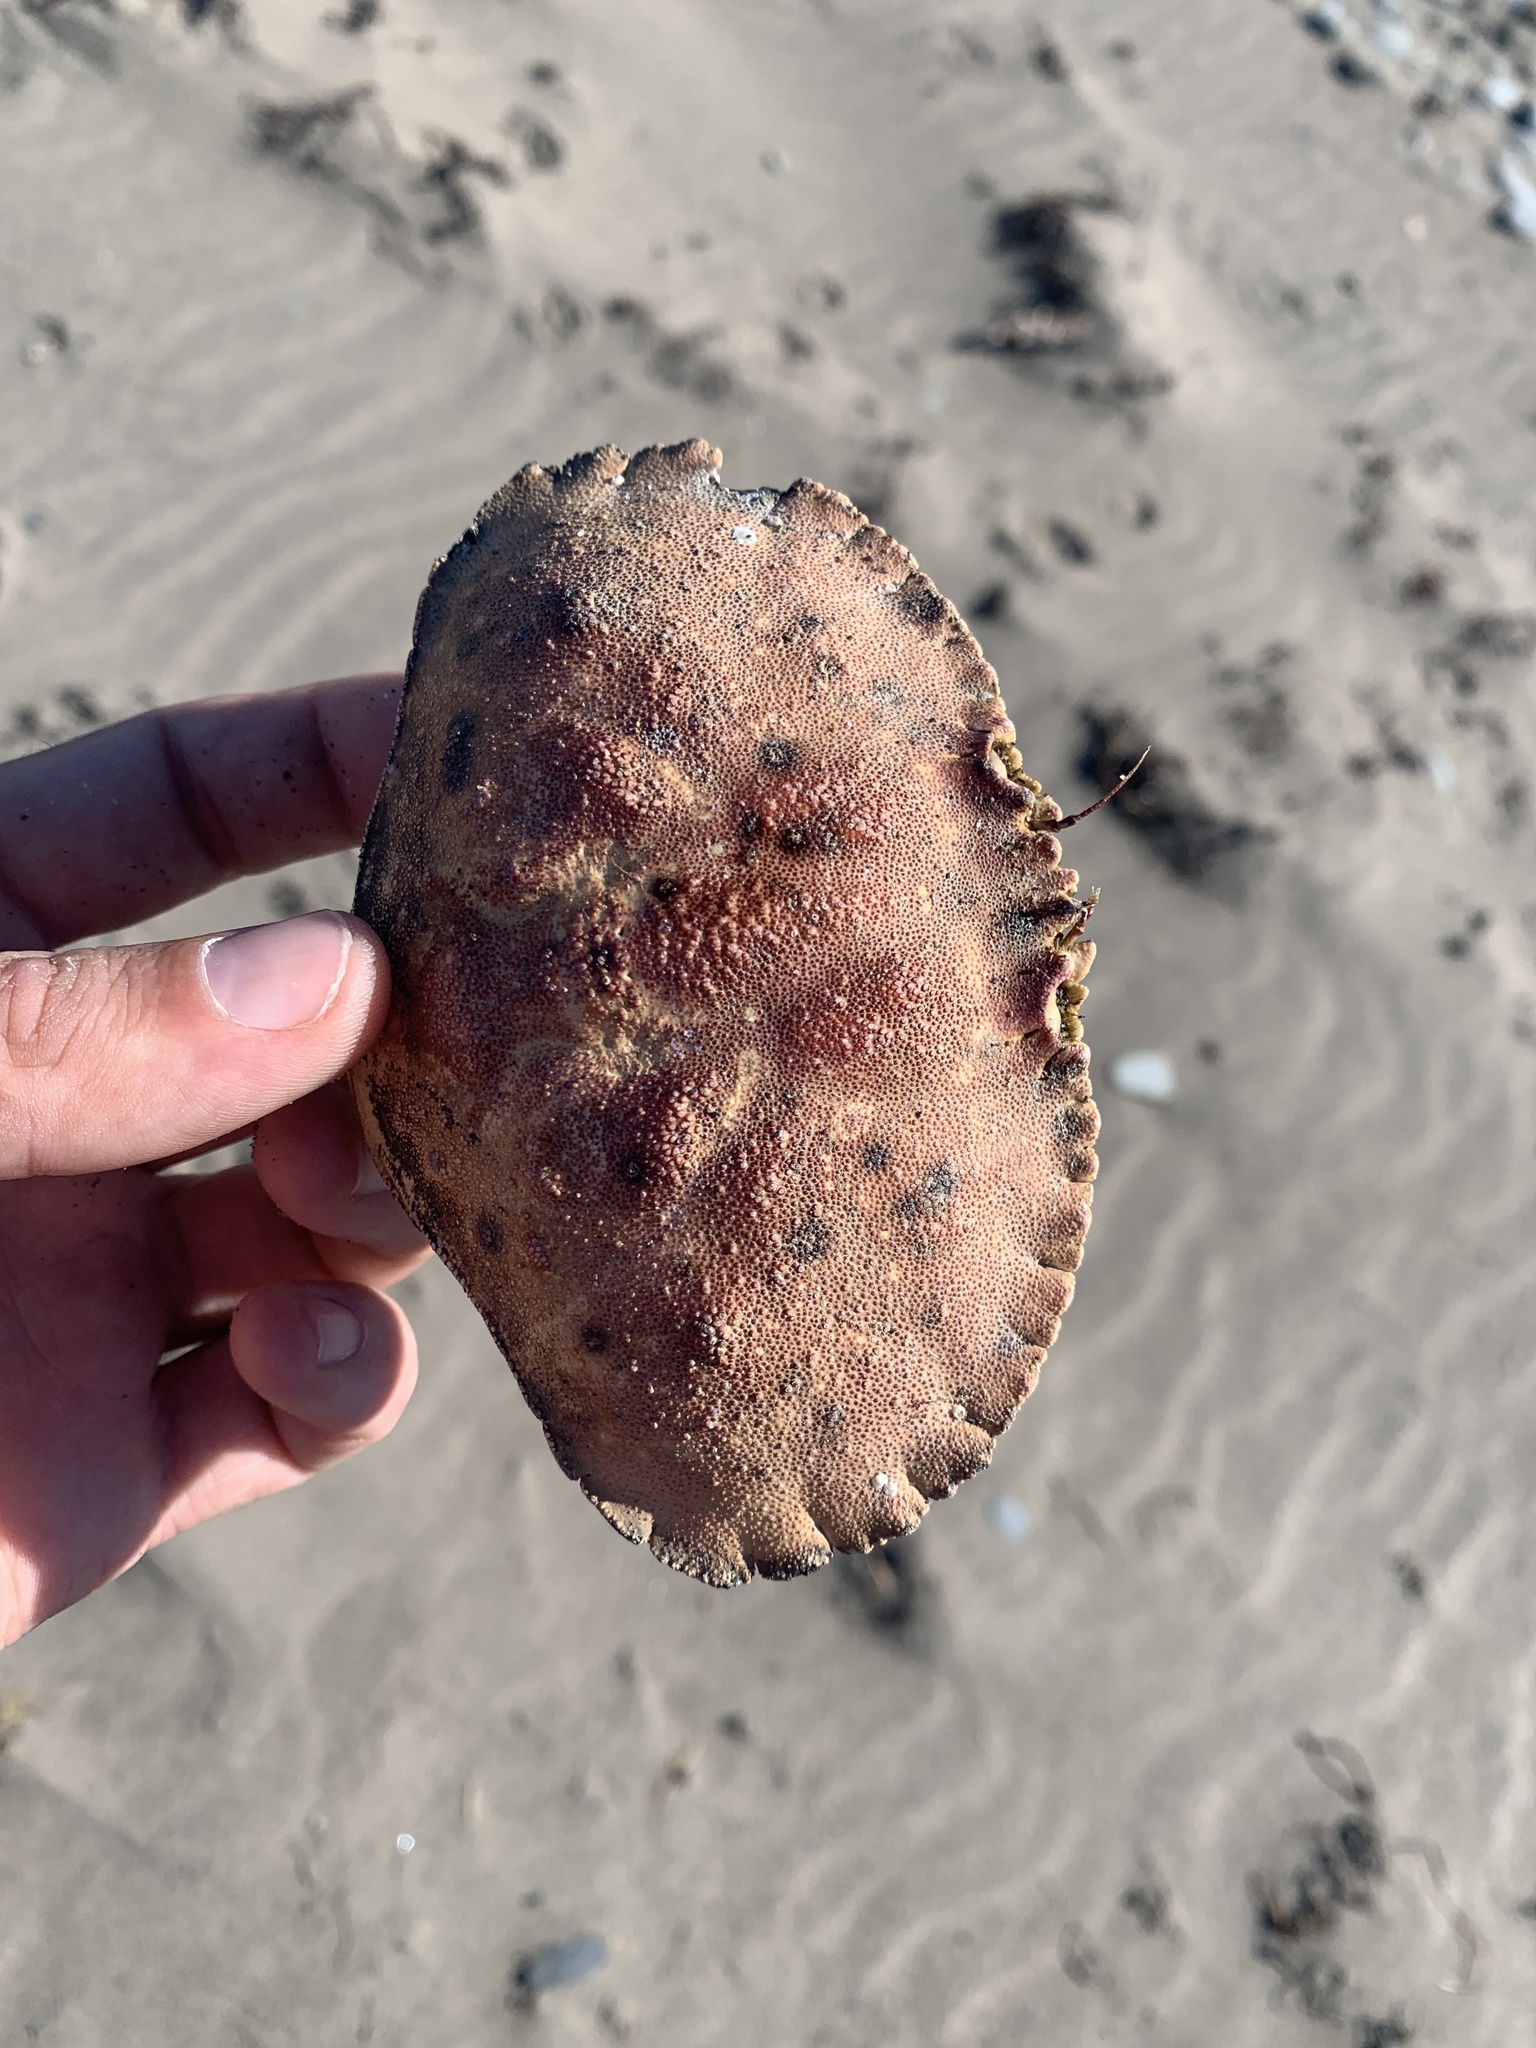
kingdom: Animalia
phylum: Arthropoda
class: Malacostraca
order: Decapoda
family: Cancridae
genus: Cancer
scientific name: Cancer borealis
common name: Jonah crab
